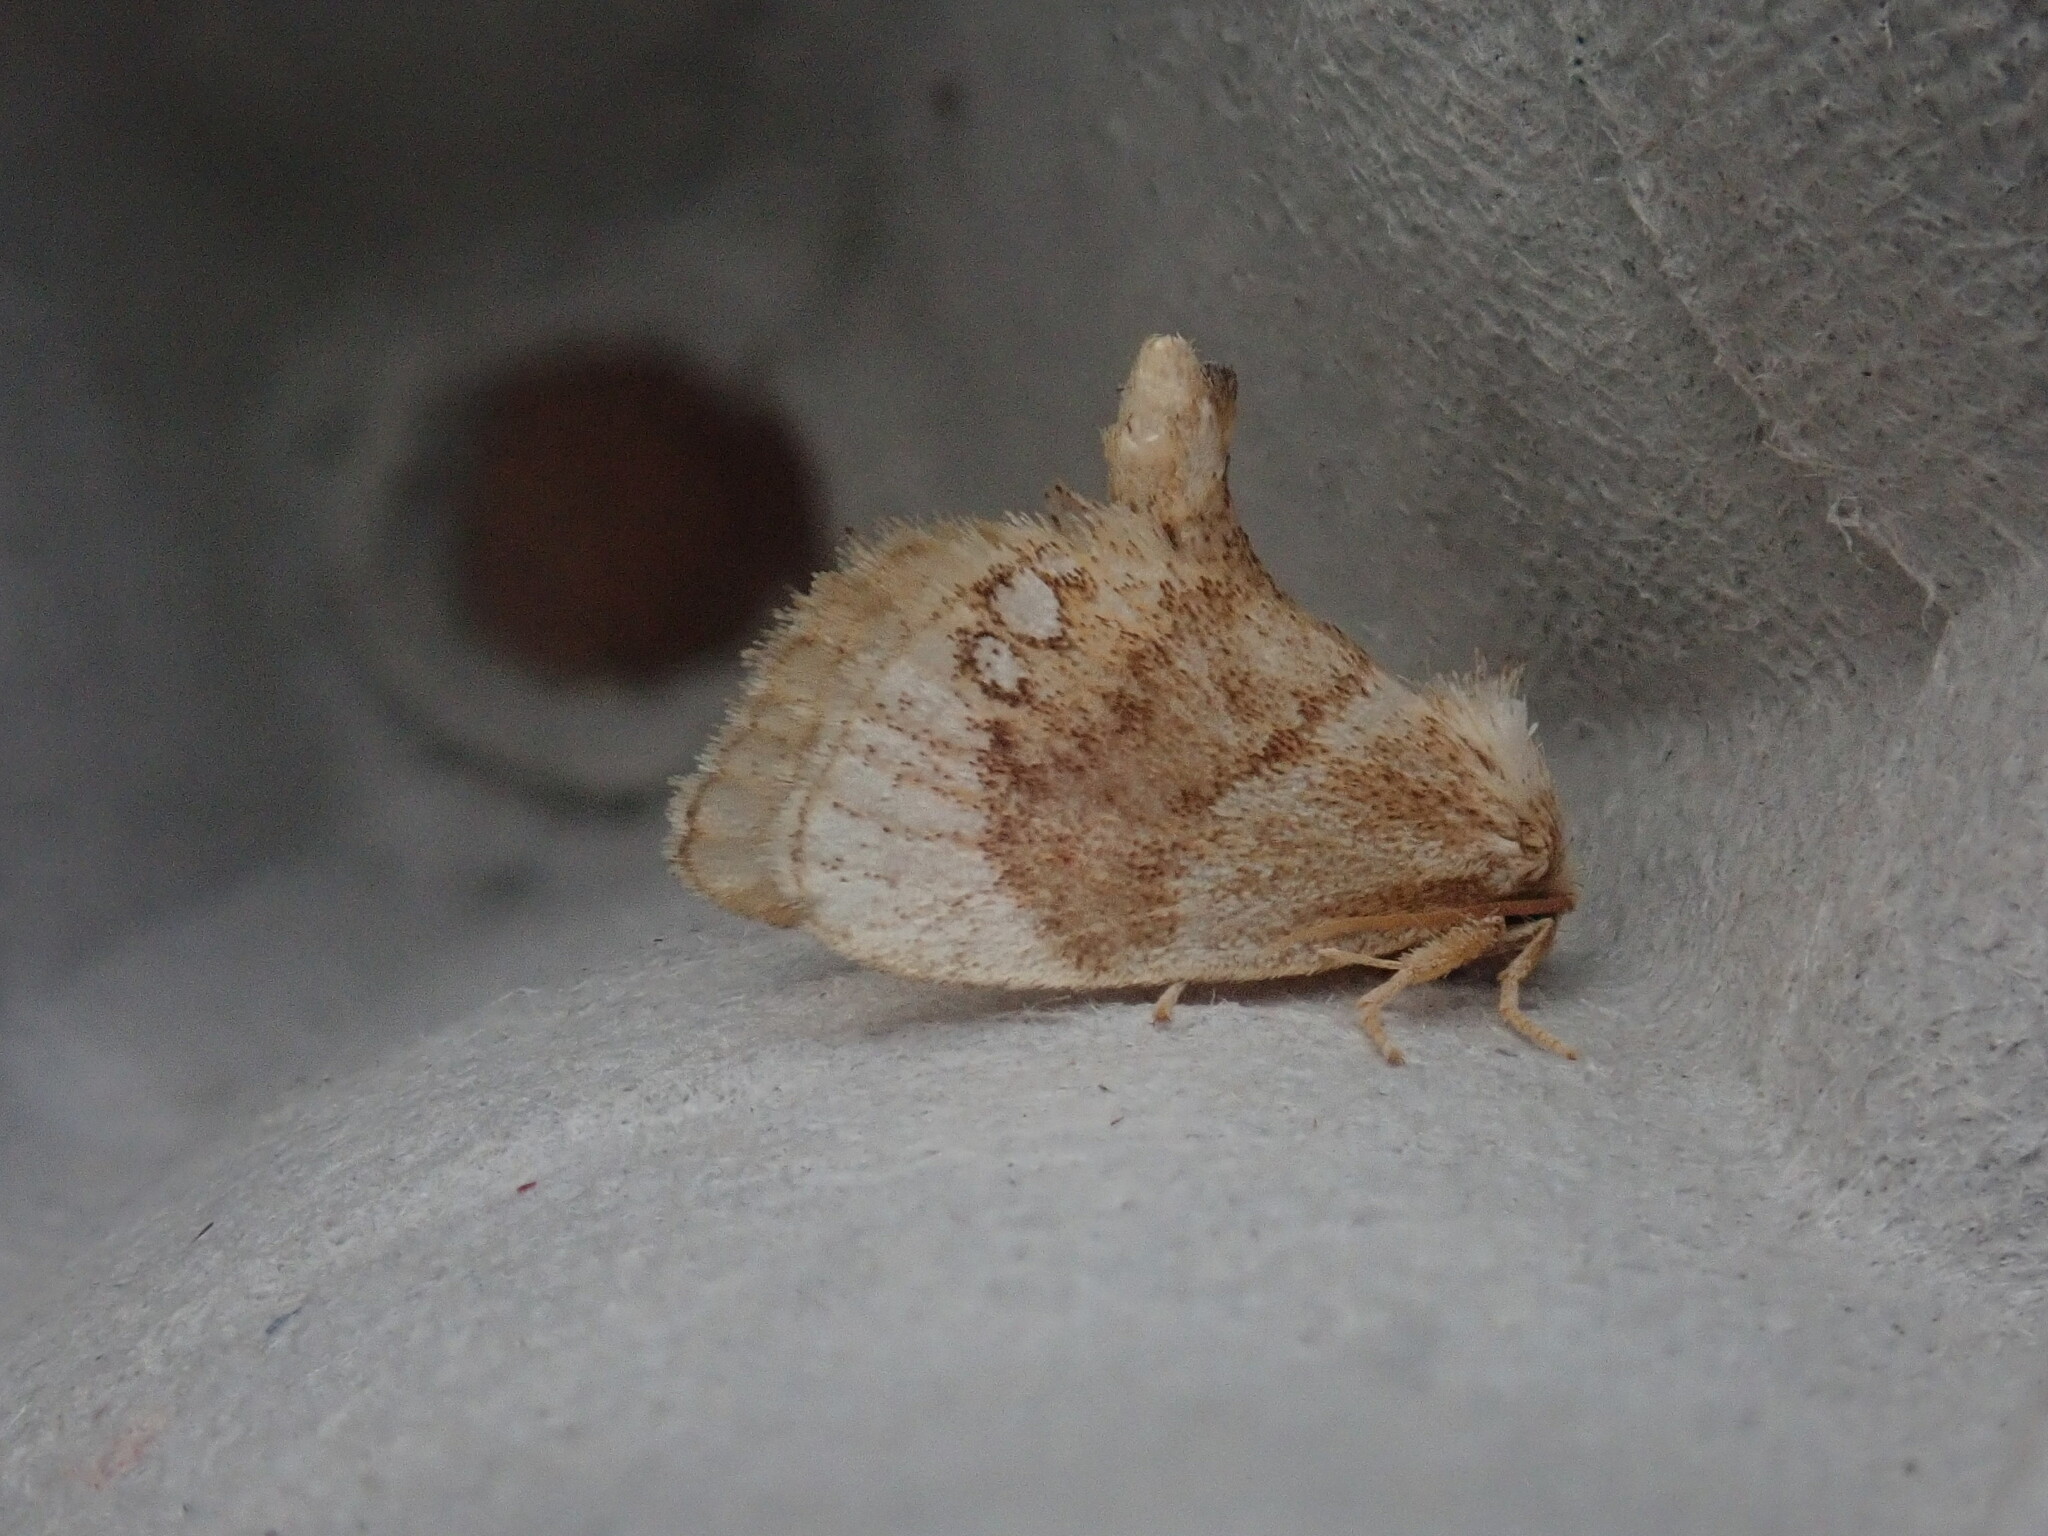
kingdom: Animalia
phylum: Arthropoda
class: Insecta
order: Lepidoptera
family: Limacodidae
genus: Packardia
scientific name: Packardia geminata
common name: Jeweled tailed slug moth
